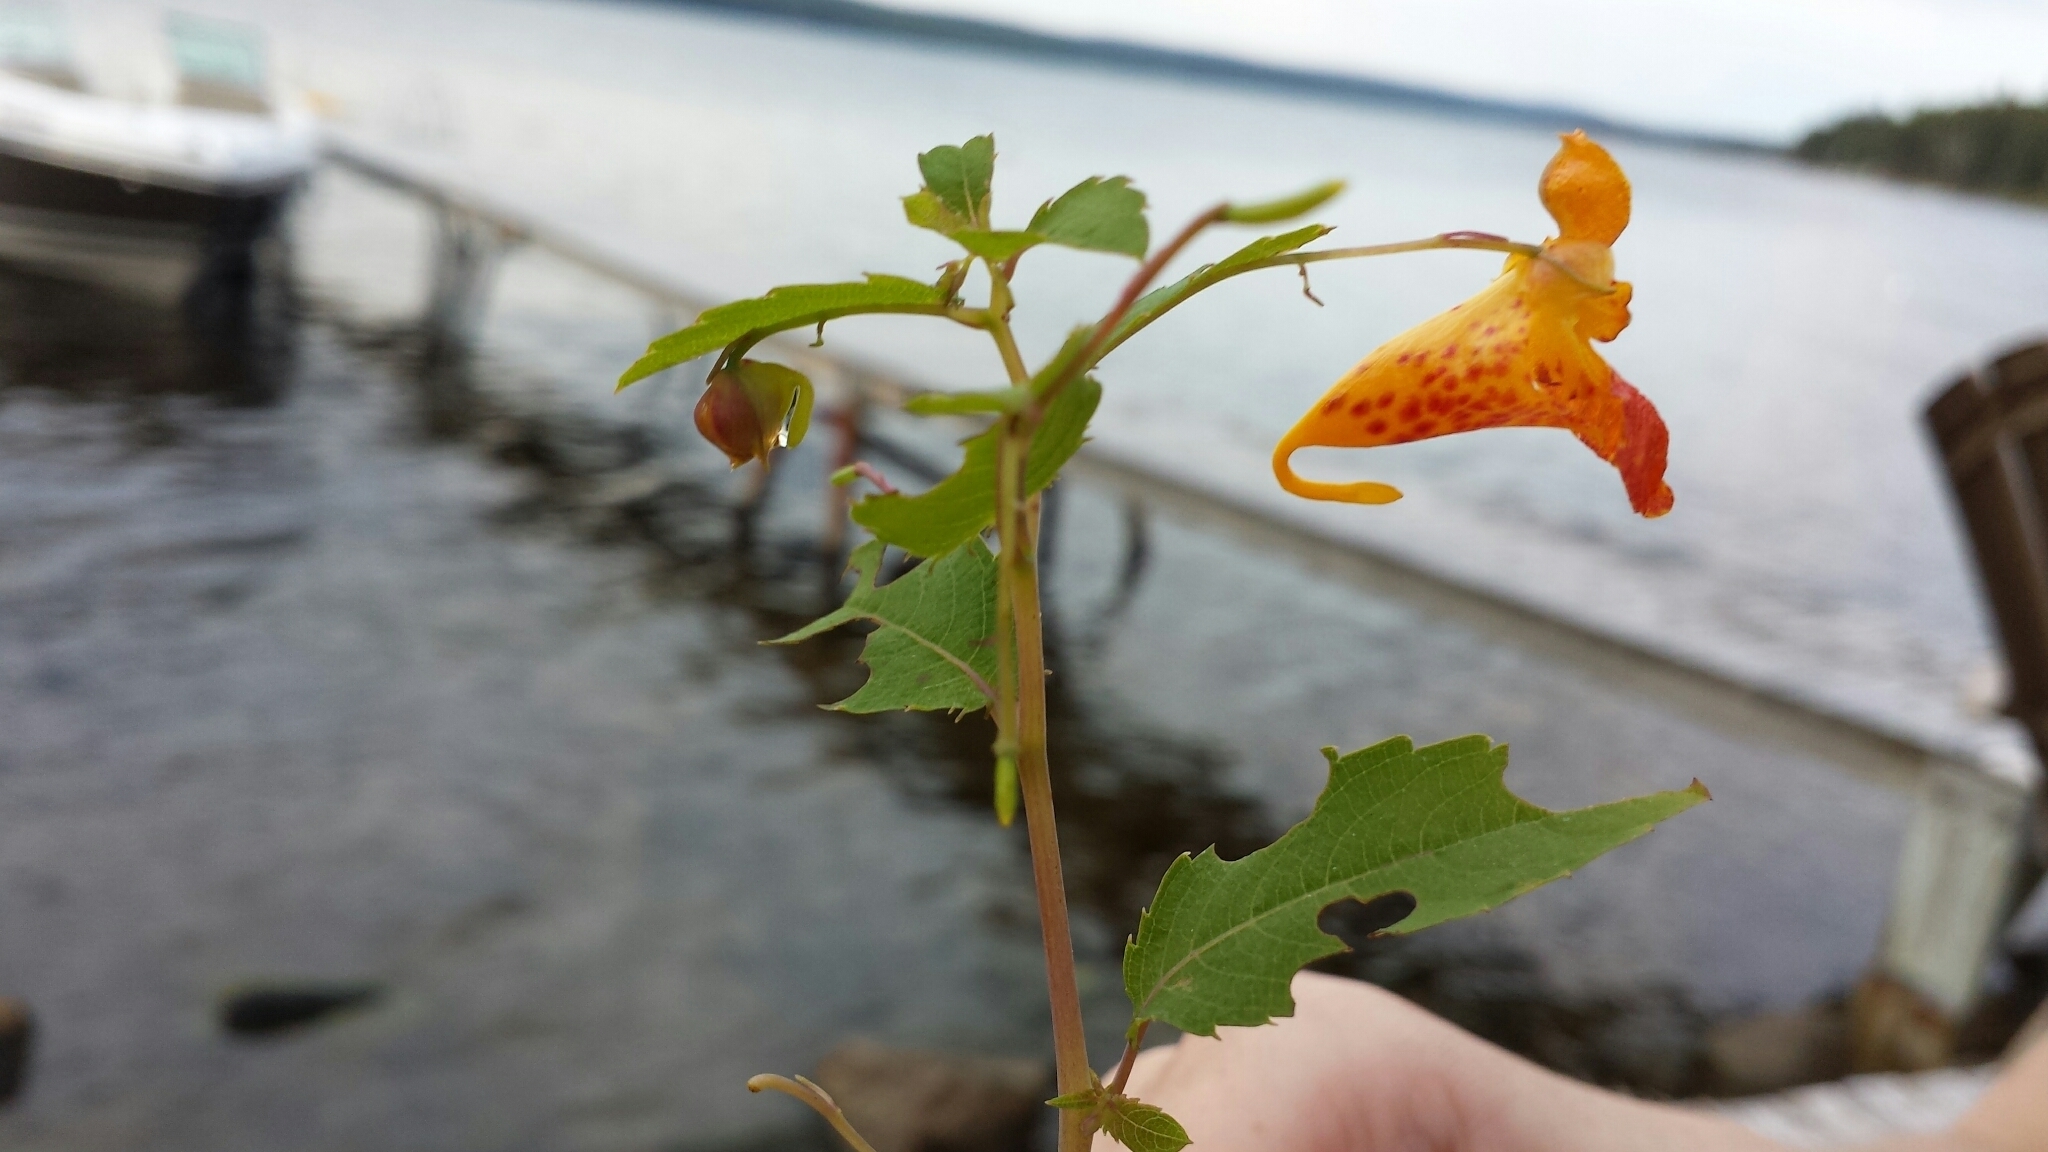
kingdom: Plantae
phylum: Tracheophyta
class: Magnoliopsida
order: Ericales
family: Balsaminaceae
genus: Impatiens
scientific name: Impatiens capensis
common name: Orange balsam
